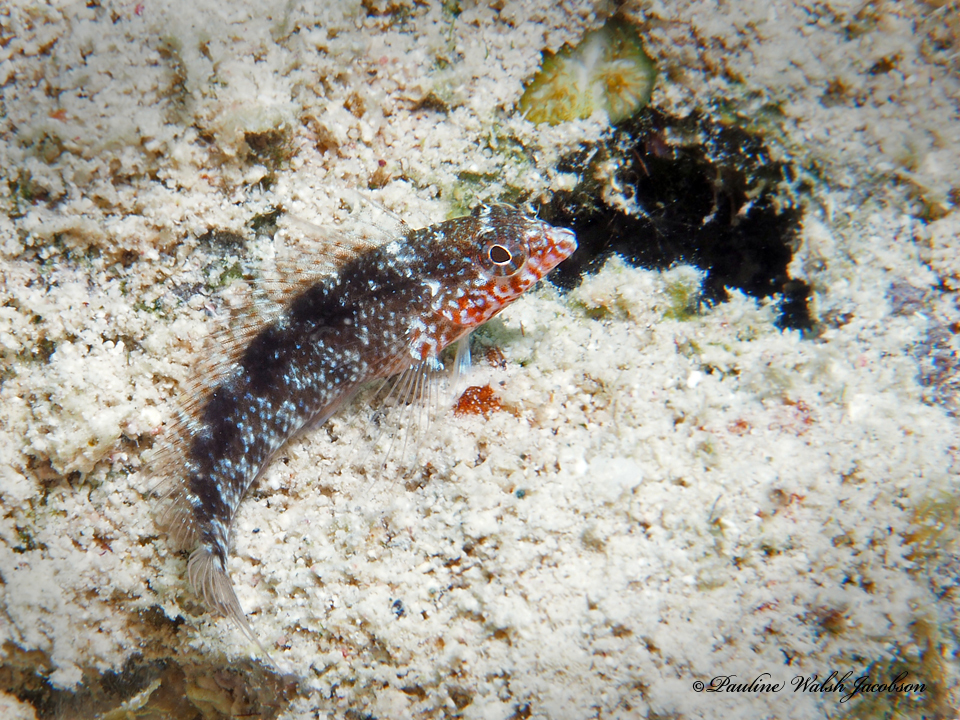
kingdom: Animalia
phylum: Chordata
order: Perciformes
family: Labrisomidae
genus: Malacoctenus
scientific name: Malacoctenus macropus
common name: Rosy blenny
